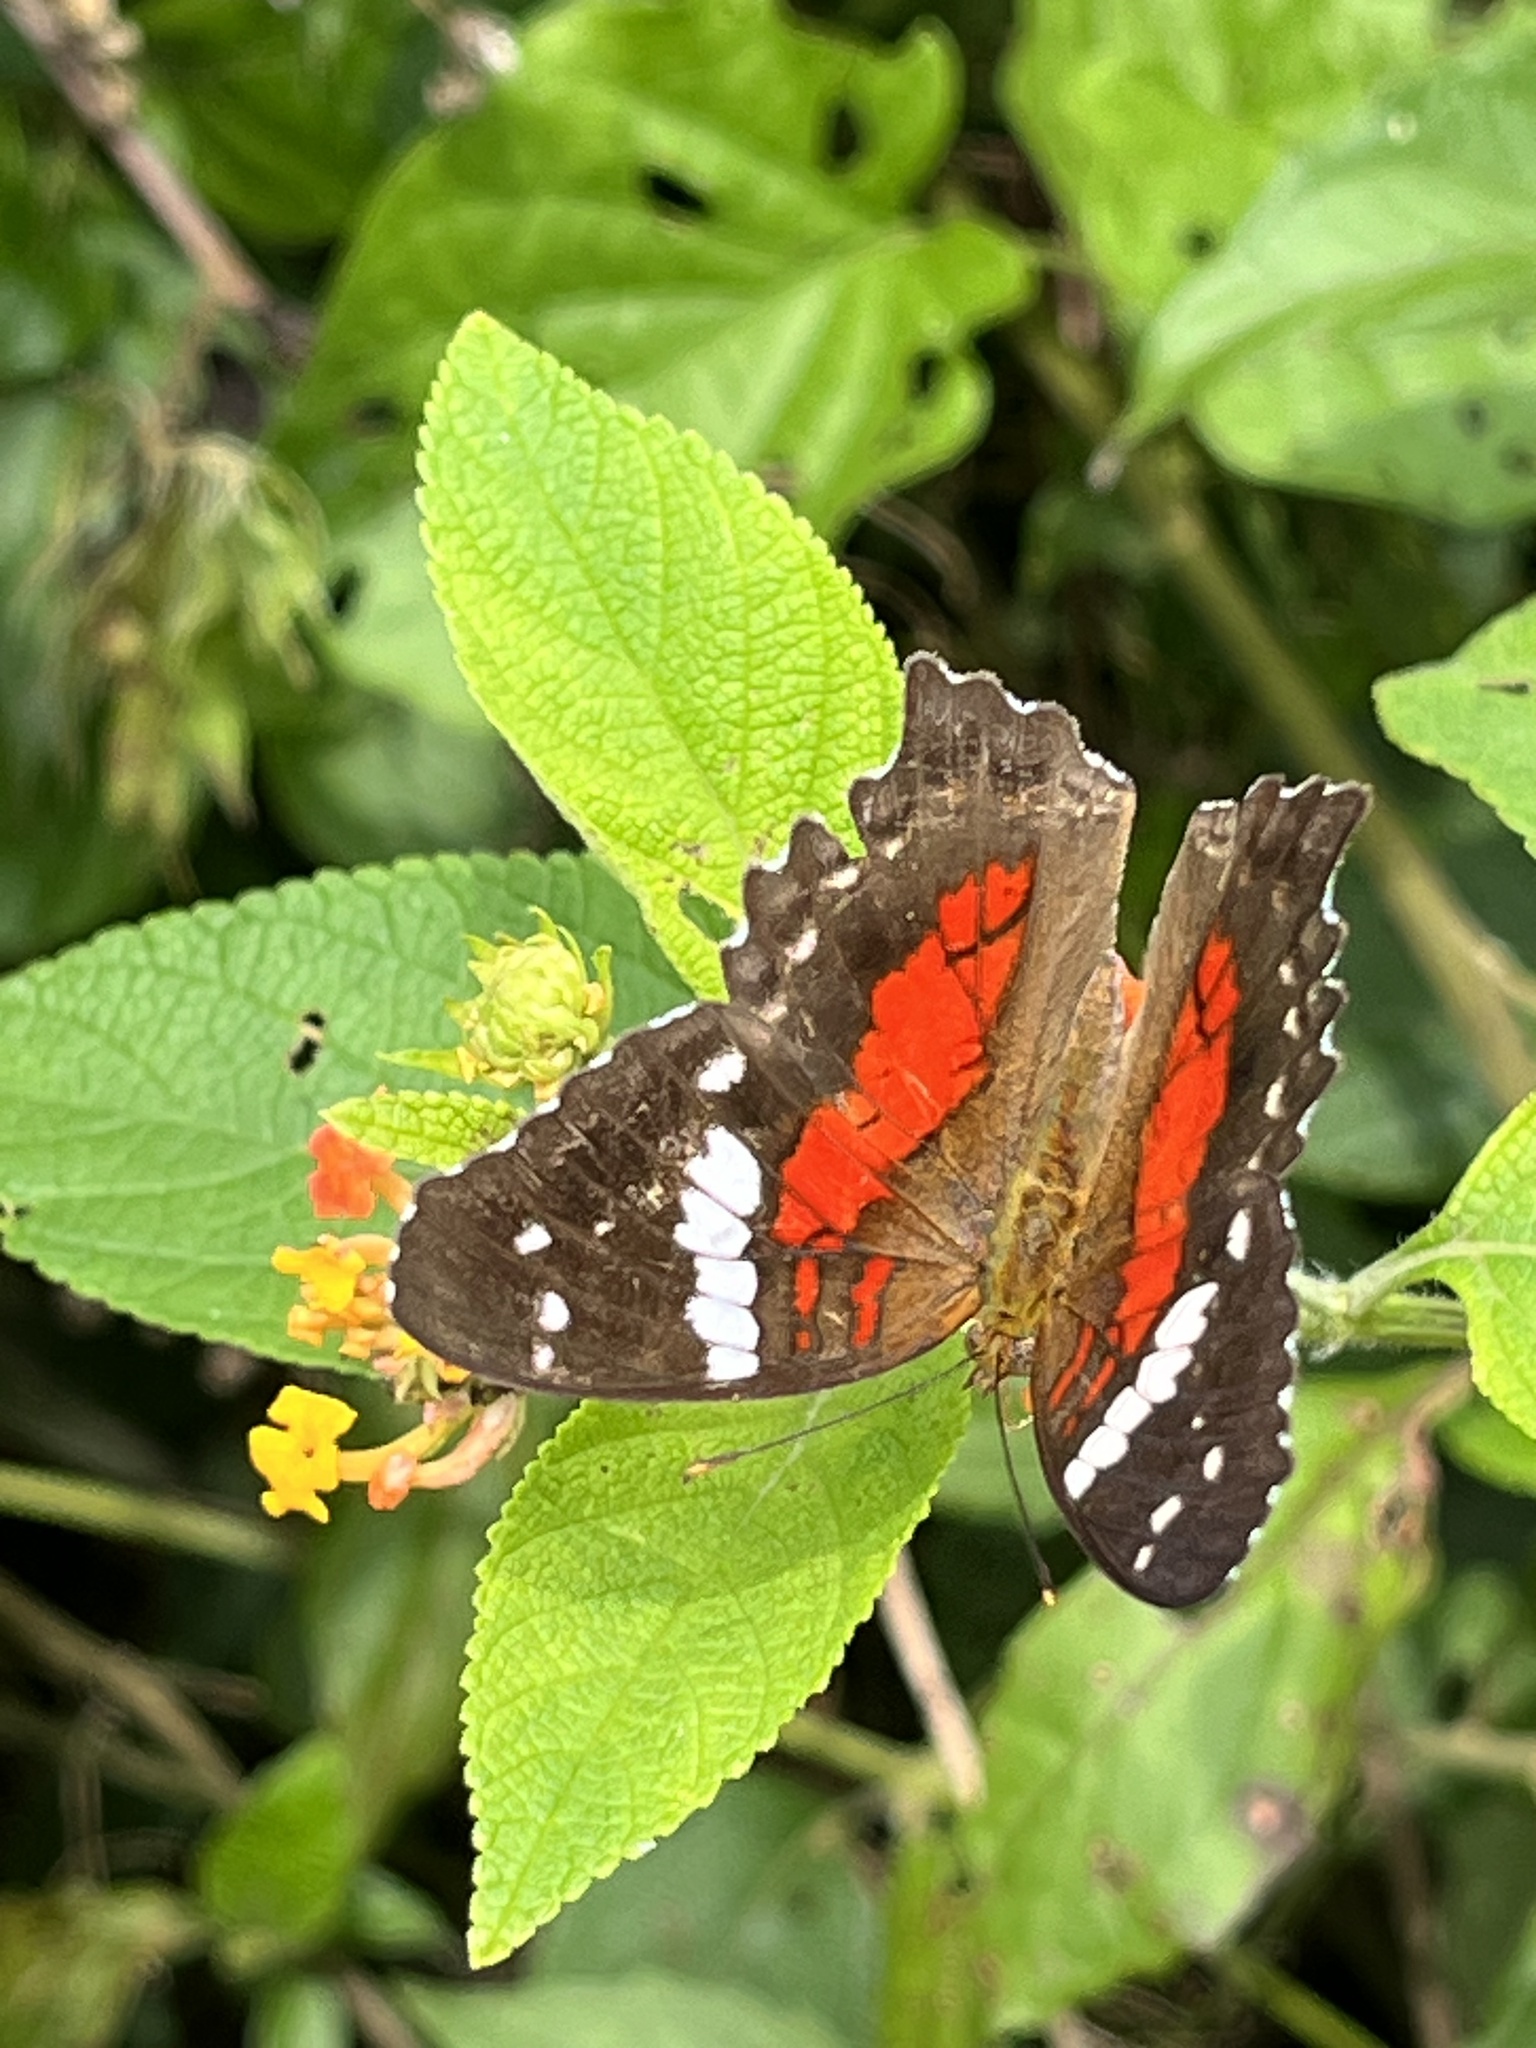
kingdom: Animalia
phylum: Arthropoda
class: Insecta
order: Lepidoptera
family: Nymphalidae
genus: Anartia
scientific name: Anartia amathea
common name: Red peacock
